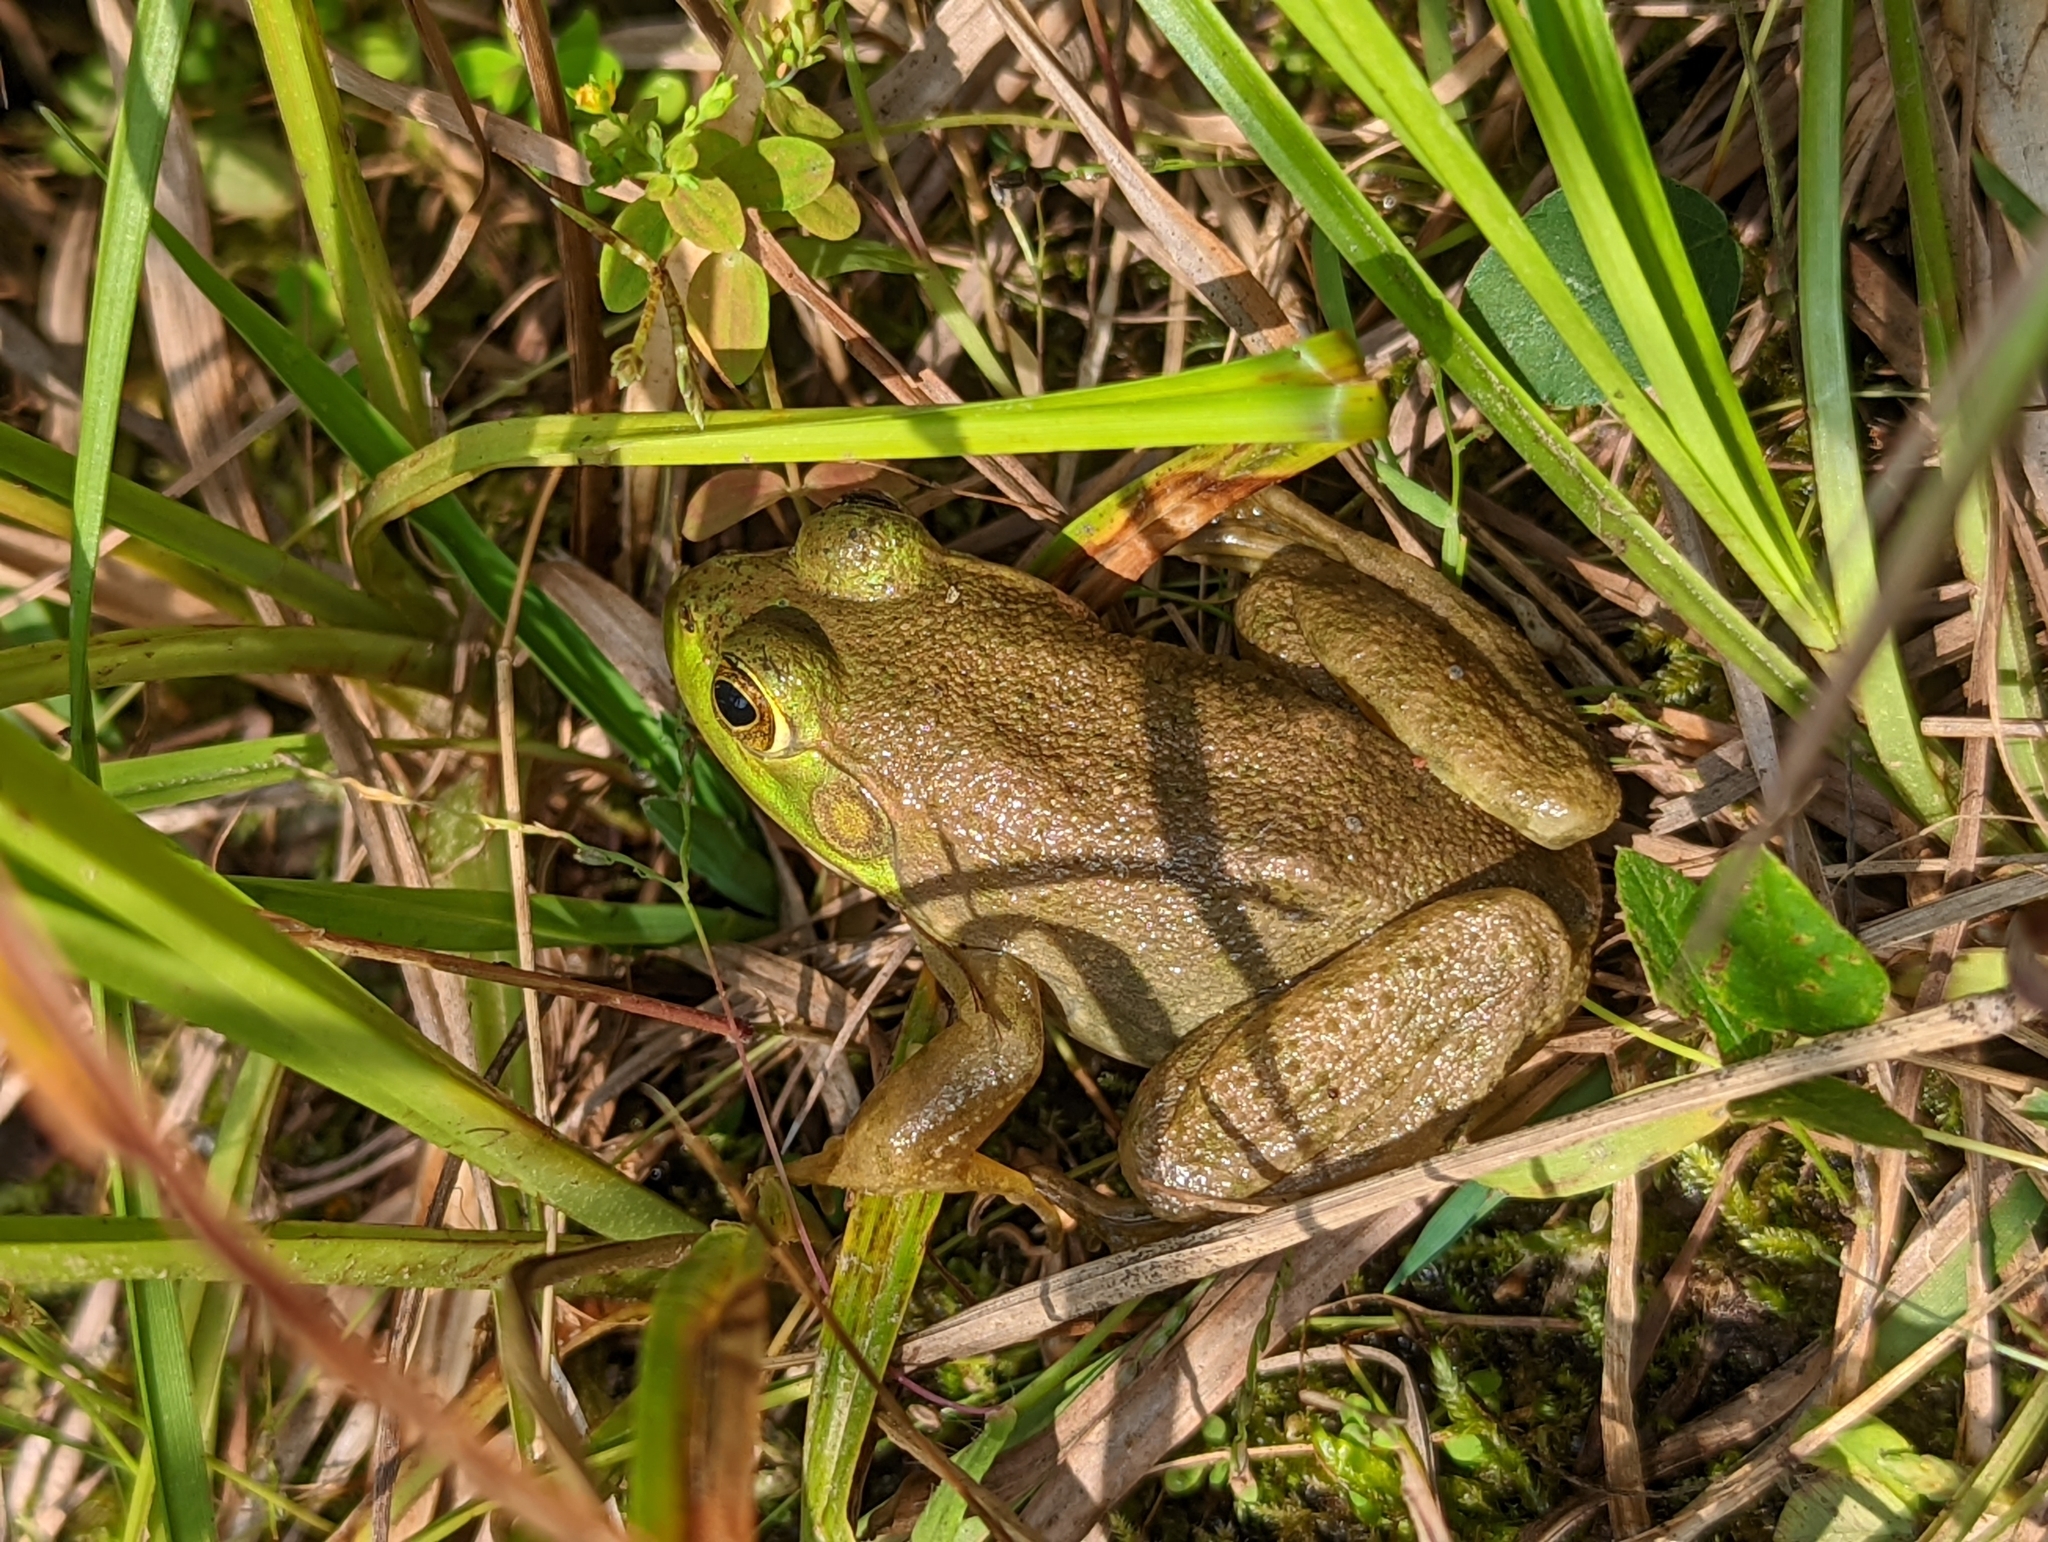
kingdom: Animalia
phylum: Chordata
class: Amphibia
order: Anura
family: Ranidae
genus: Lithobates
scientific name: Lithobates catesbeianus
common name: American bullfrog
